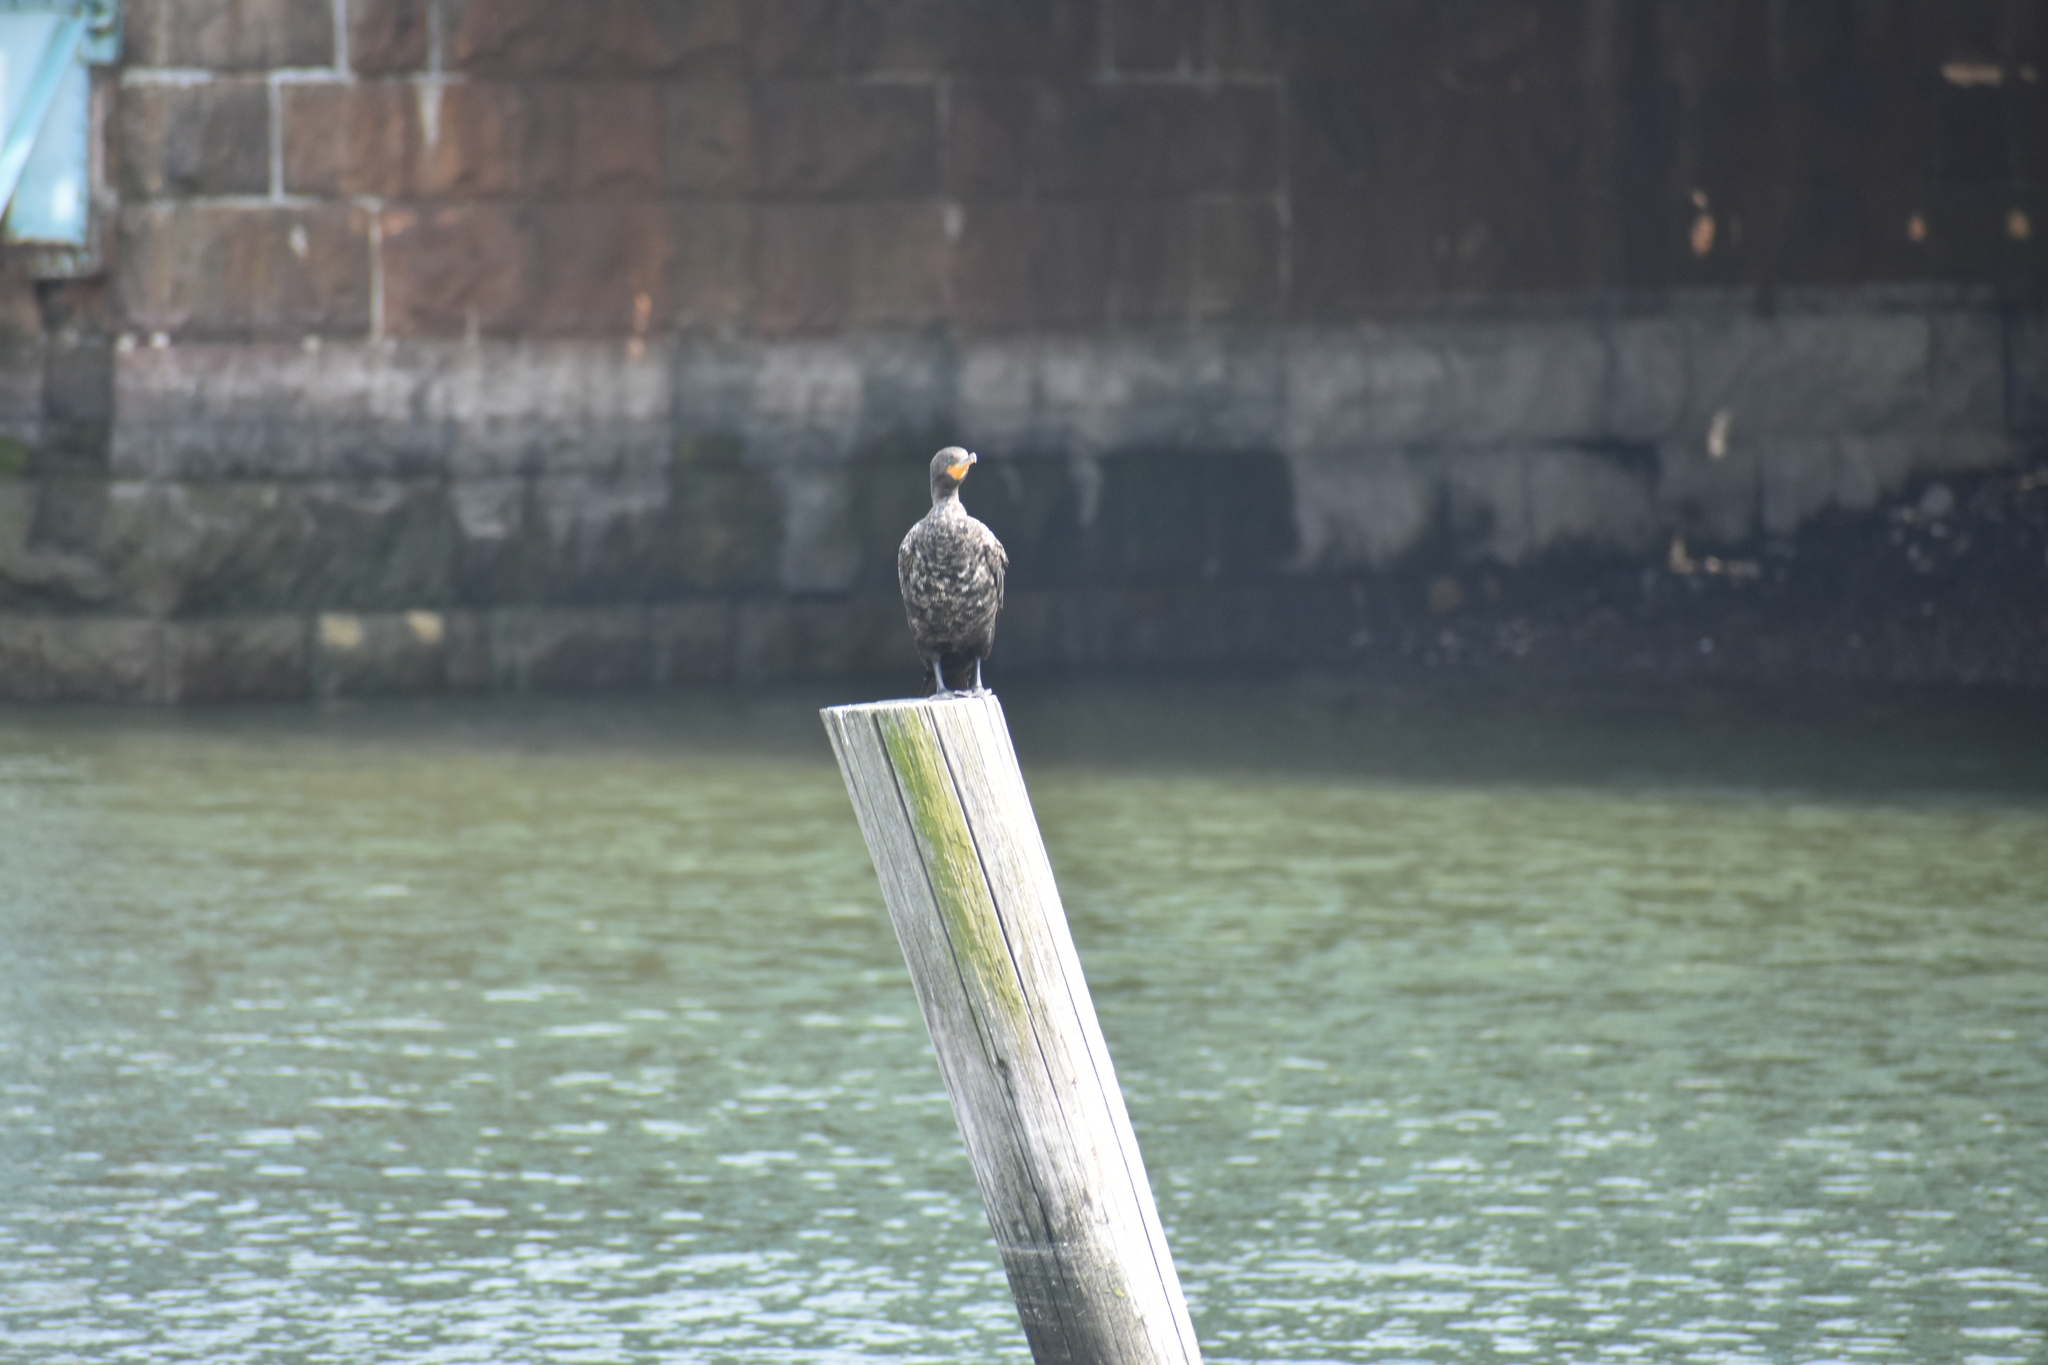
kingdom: Animalia
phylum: Chordata
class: Aves
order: Suliformes
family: Phalacrocoracidae
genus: Phalacrocorax
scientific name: Phalacrocorax auritus
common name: Double-crested cormorant
